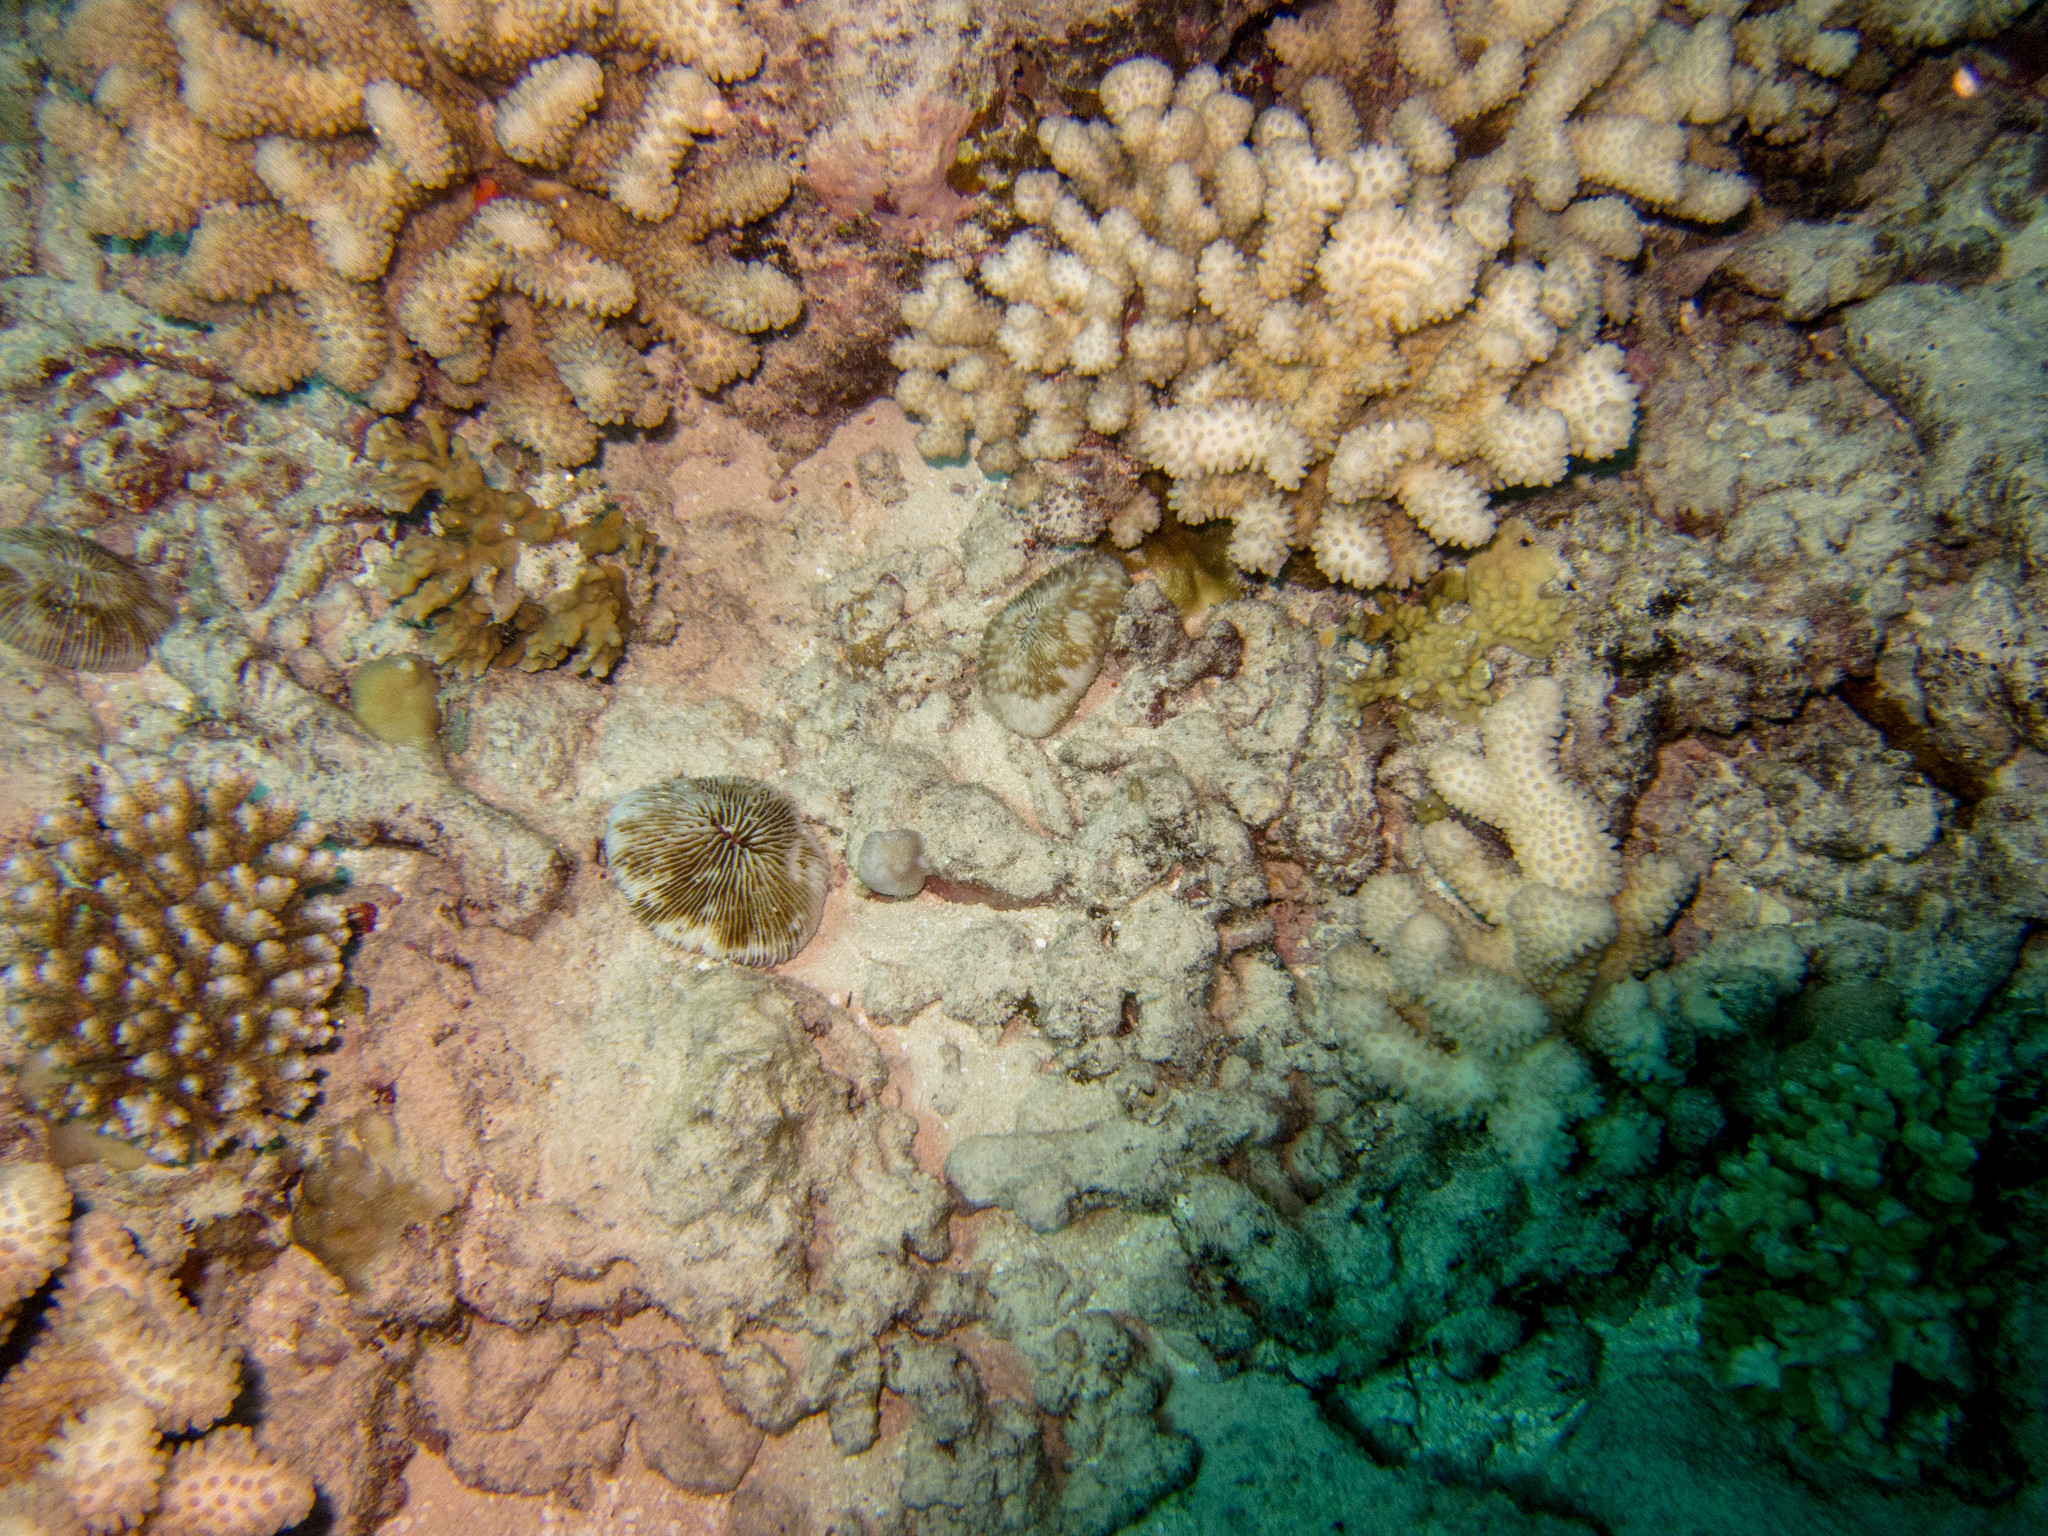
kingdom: Animalia
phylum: Cnidaria
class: Anthozoa
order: Scleractinia
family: Fungiidae
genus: Lobactis
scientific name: Lobactis scutaria
